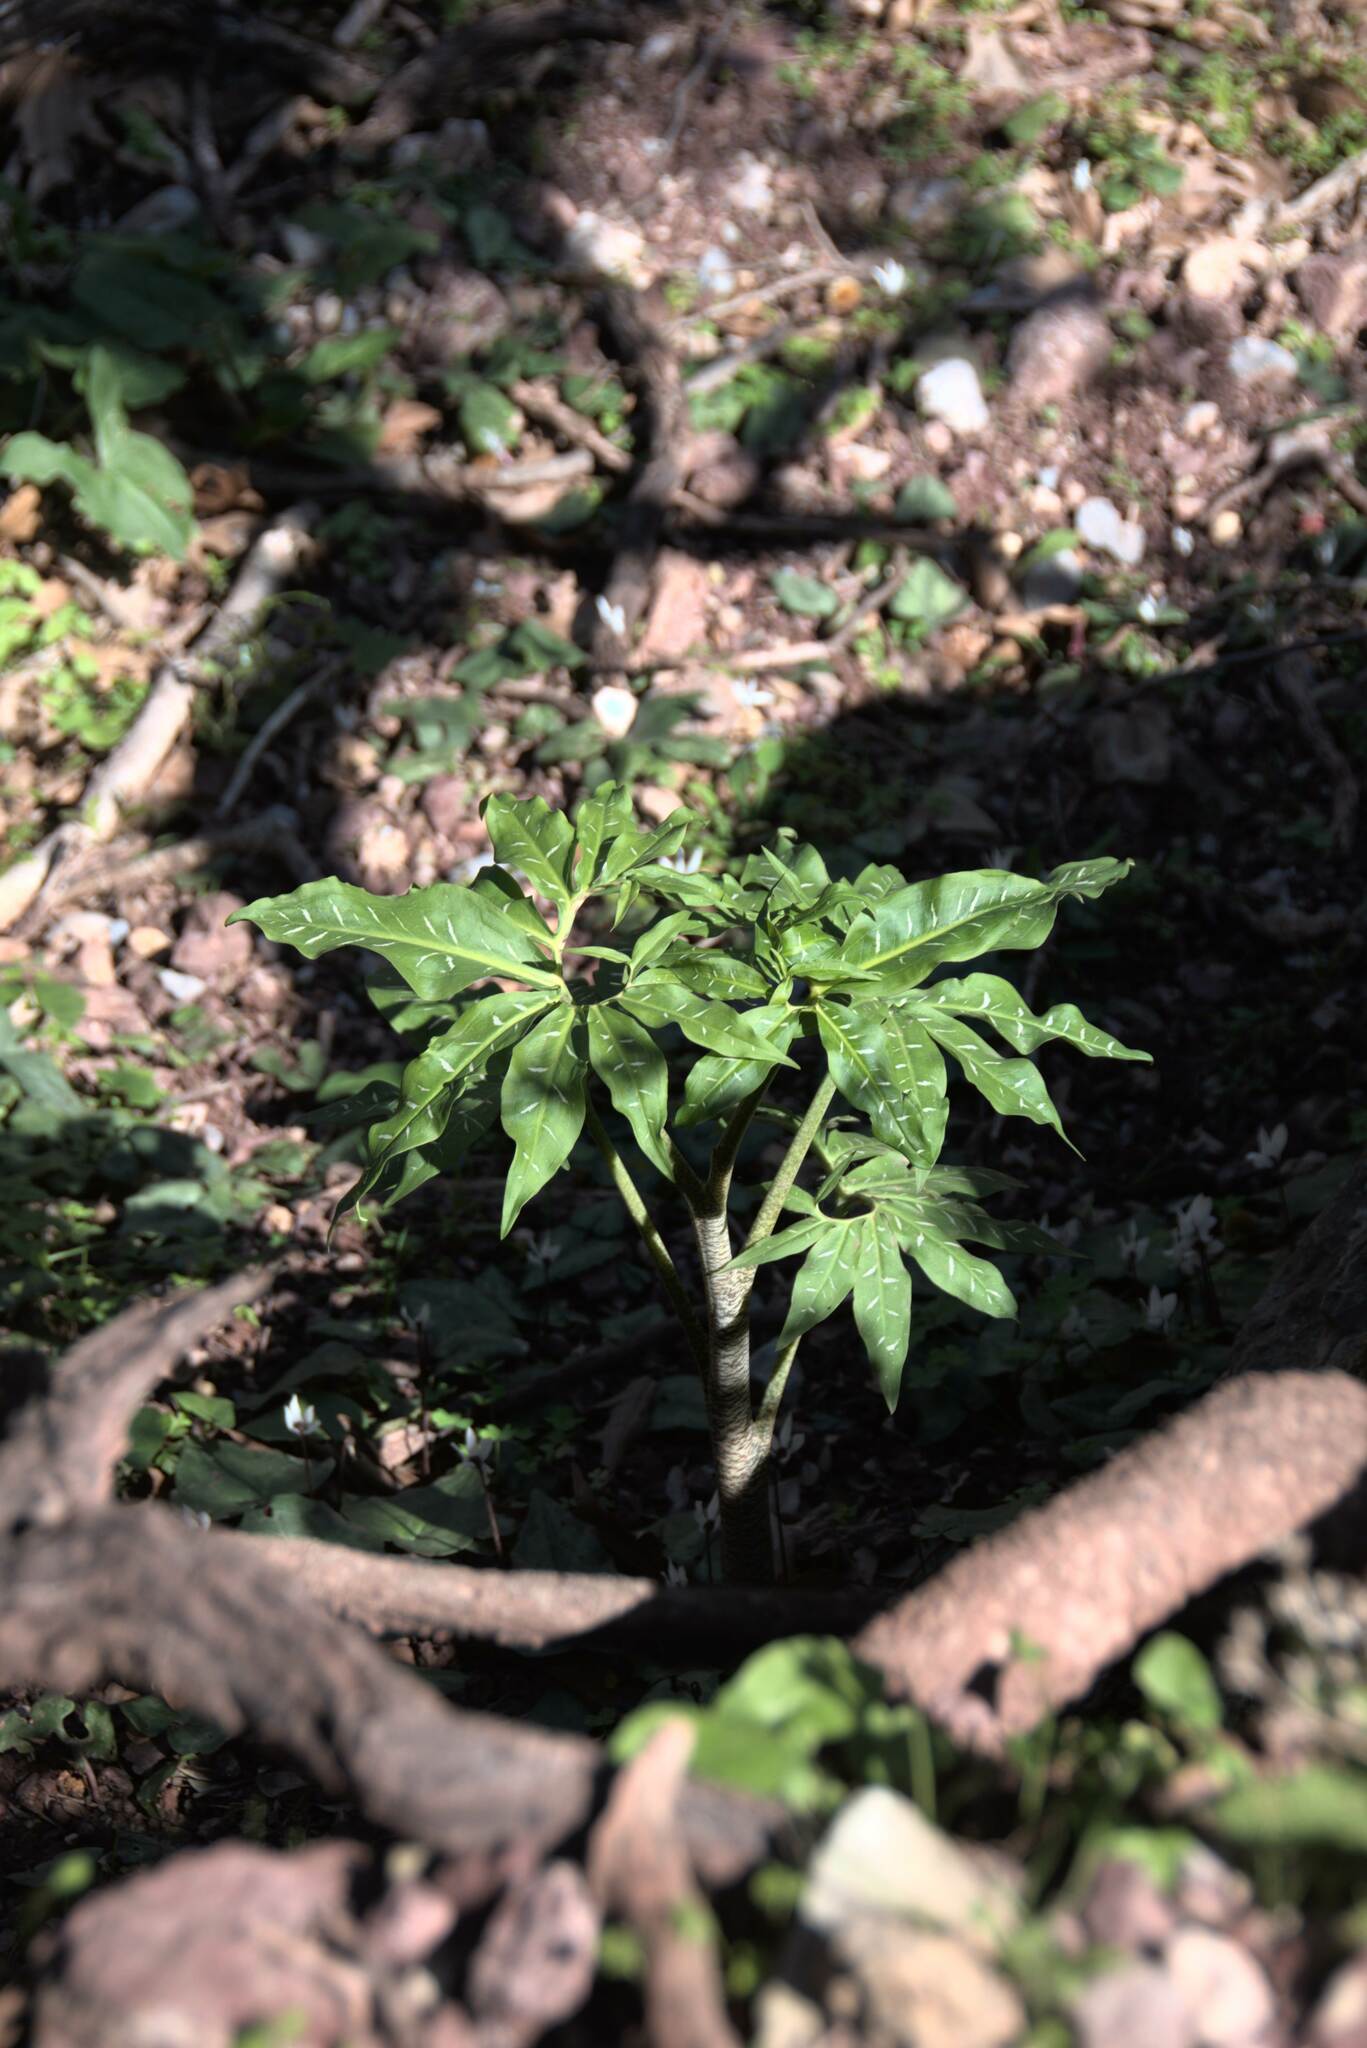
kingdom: Plantae
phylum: Tracheophyta
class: Liliopsida
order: Alismatales
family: Araceae
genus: Dracunculus
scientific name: Dracunculus vulgaris
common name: Dragon arum
